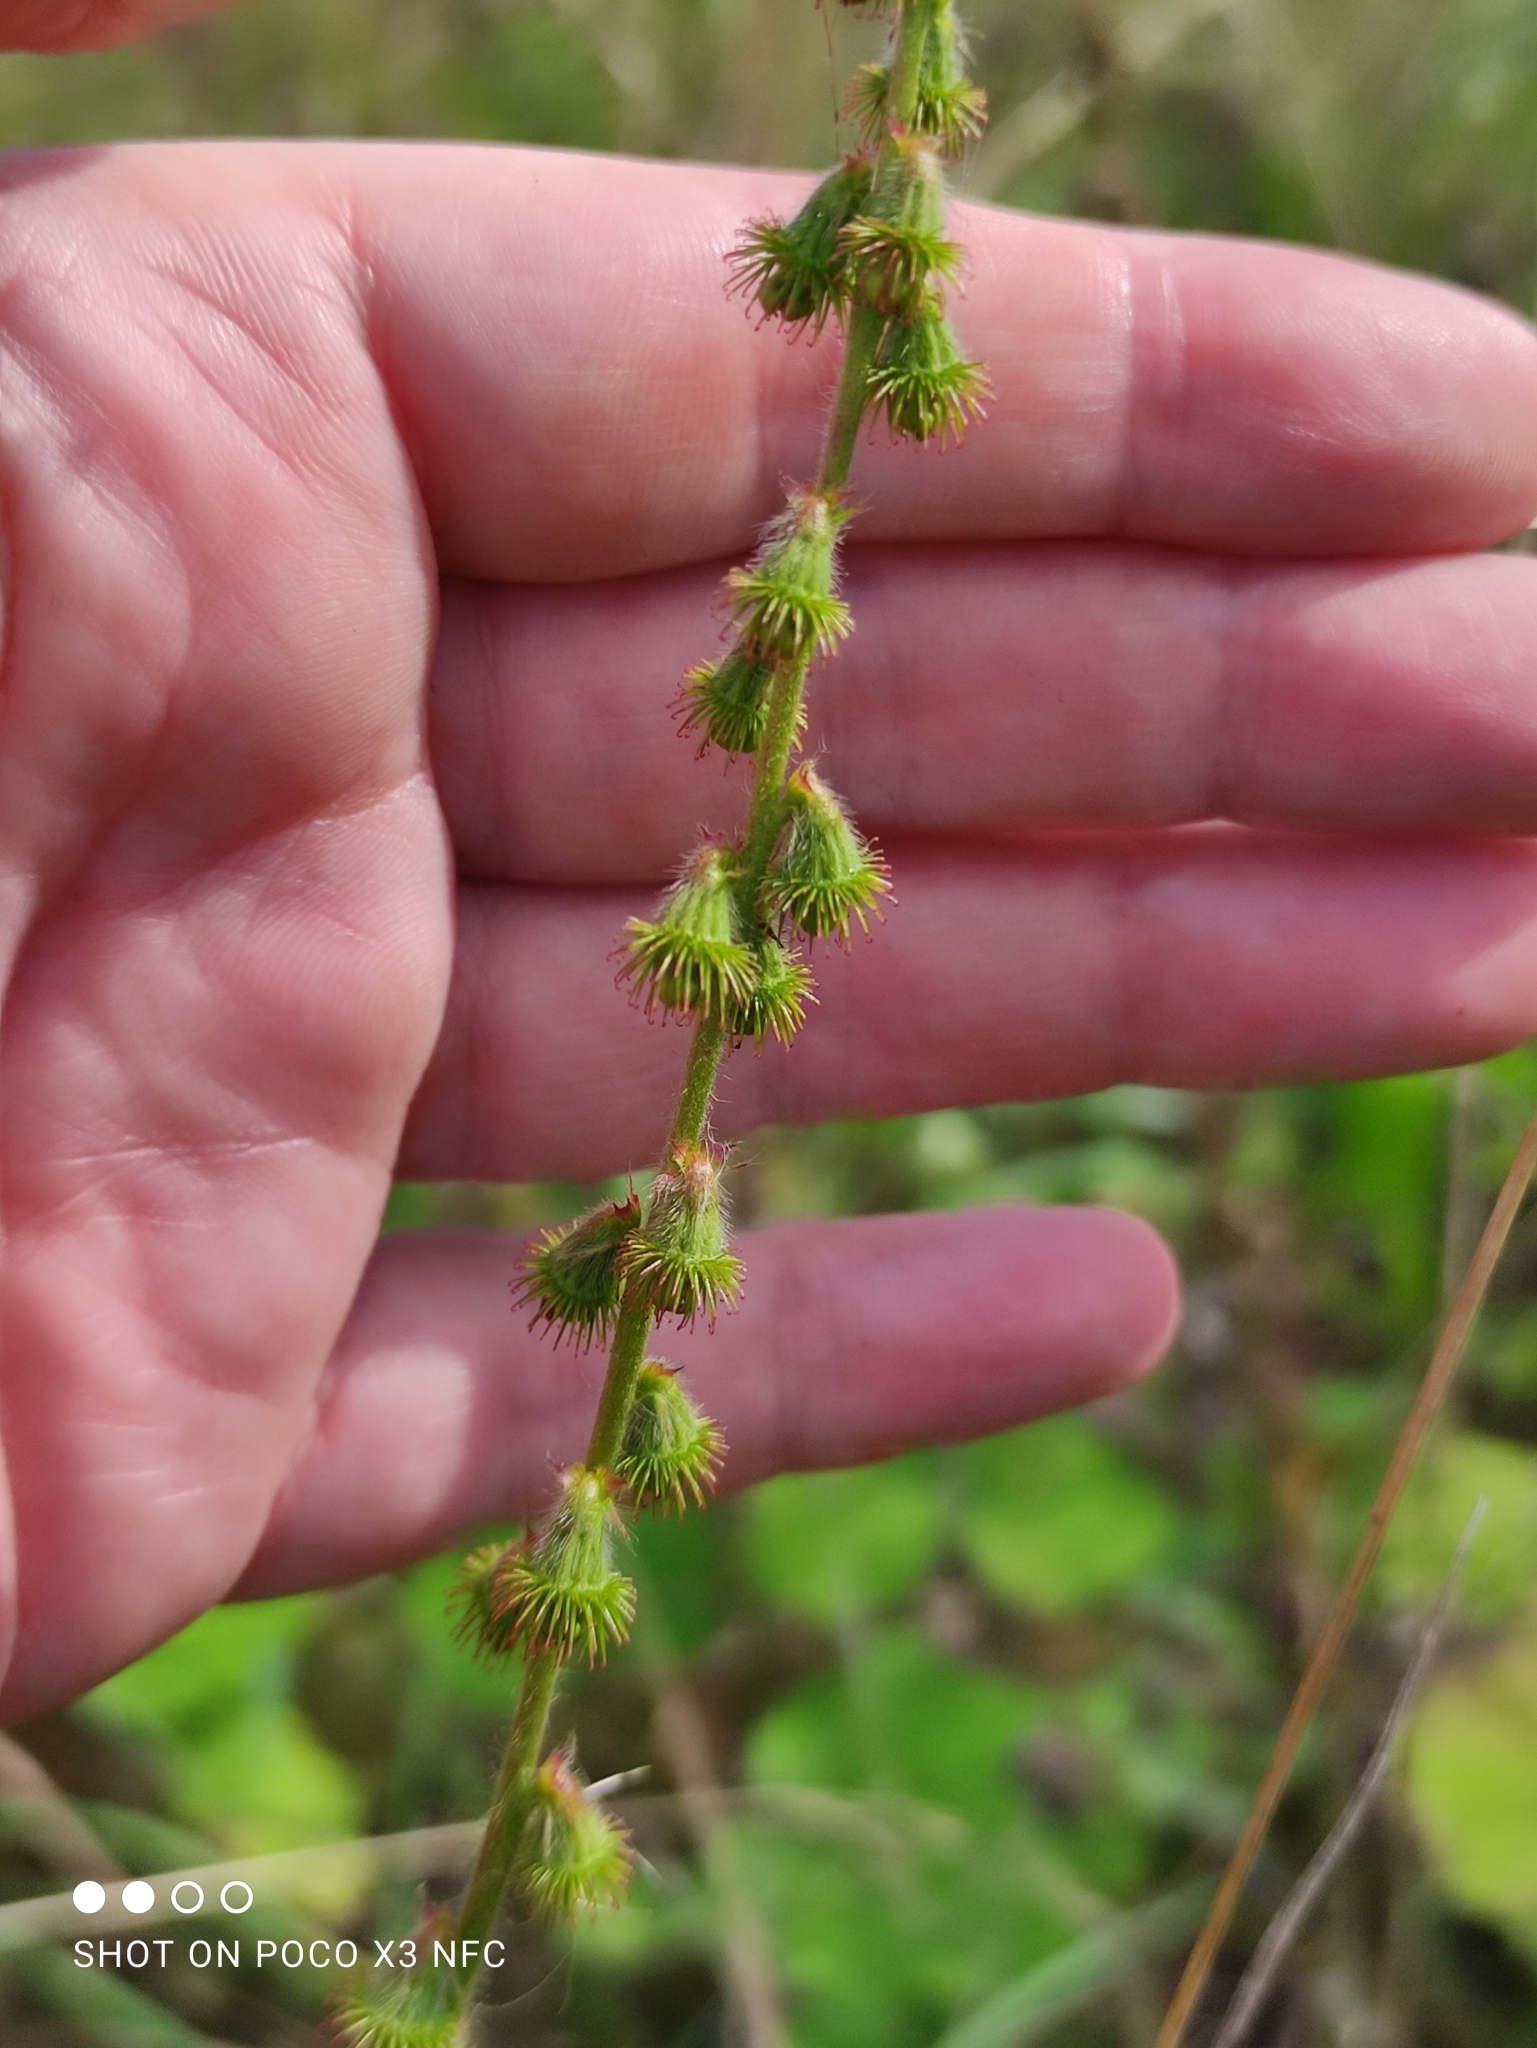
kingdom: Plantae
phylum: Tracheophyta
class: Magnoliopsida
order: Rosales
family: Rosaceae
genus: Agrimonia
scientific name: Agrimonia eupatoria
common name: Agrimony
